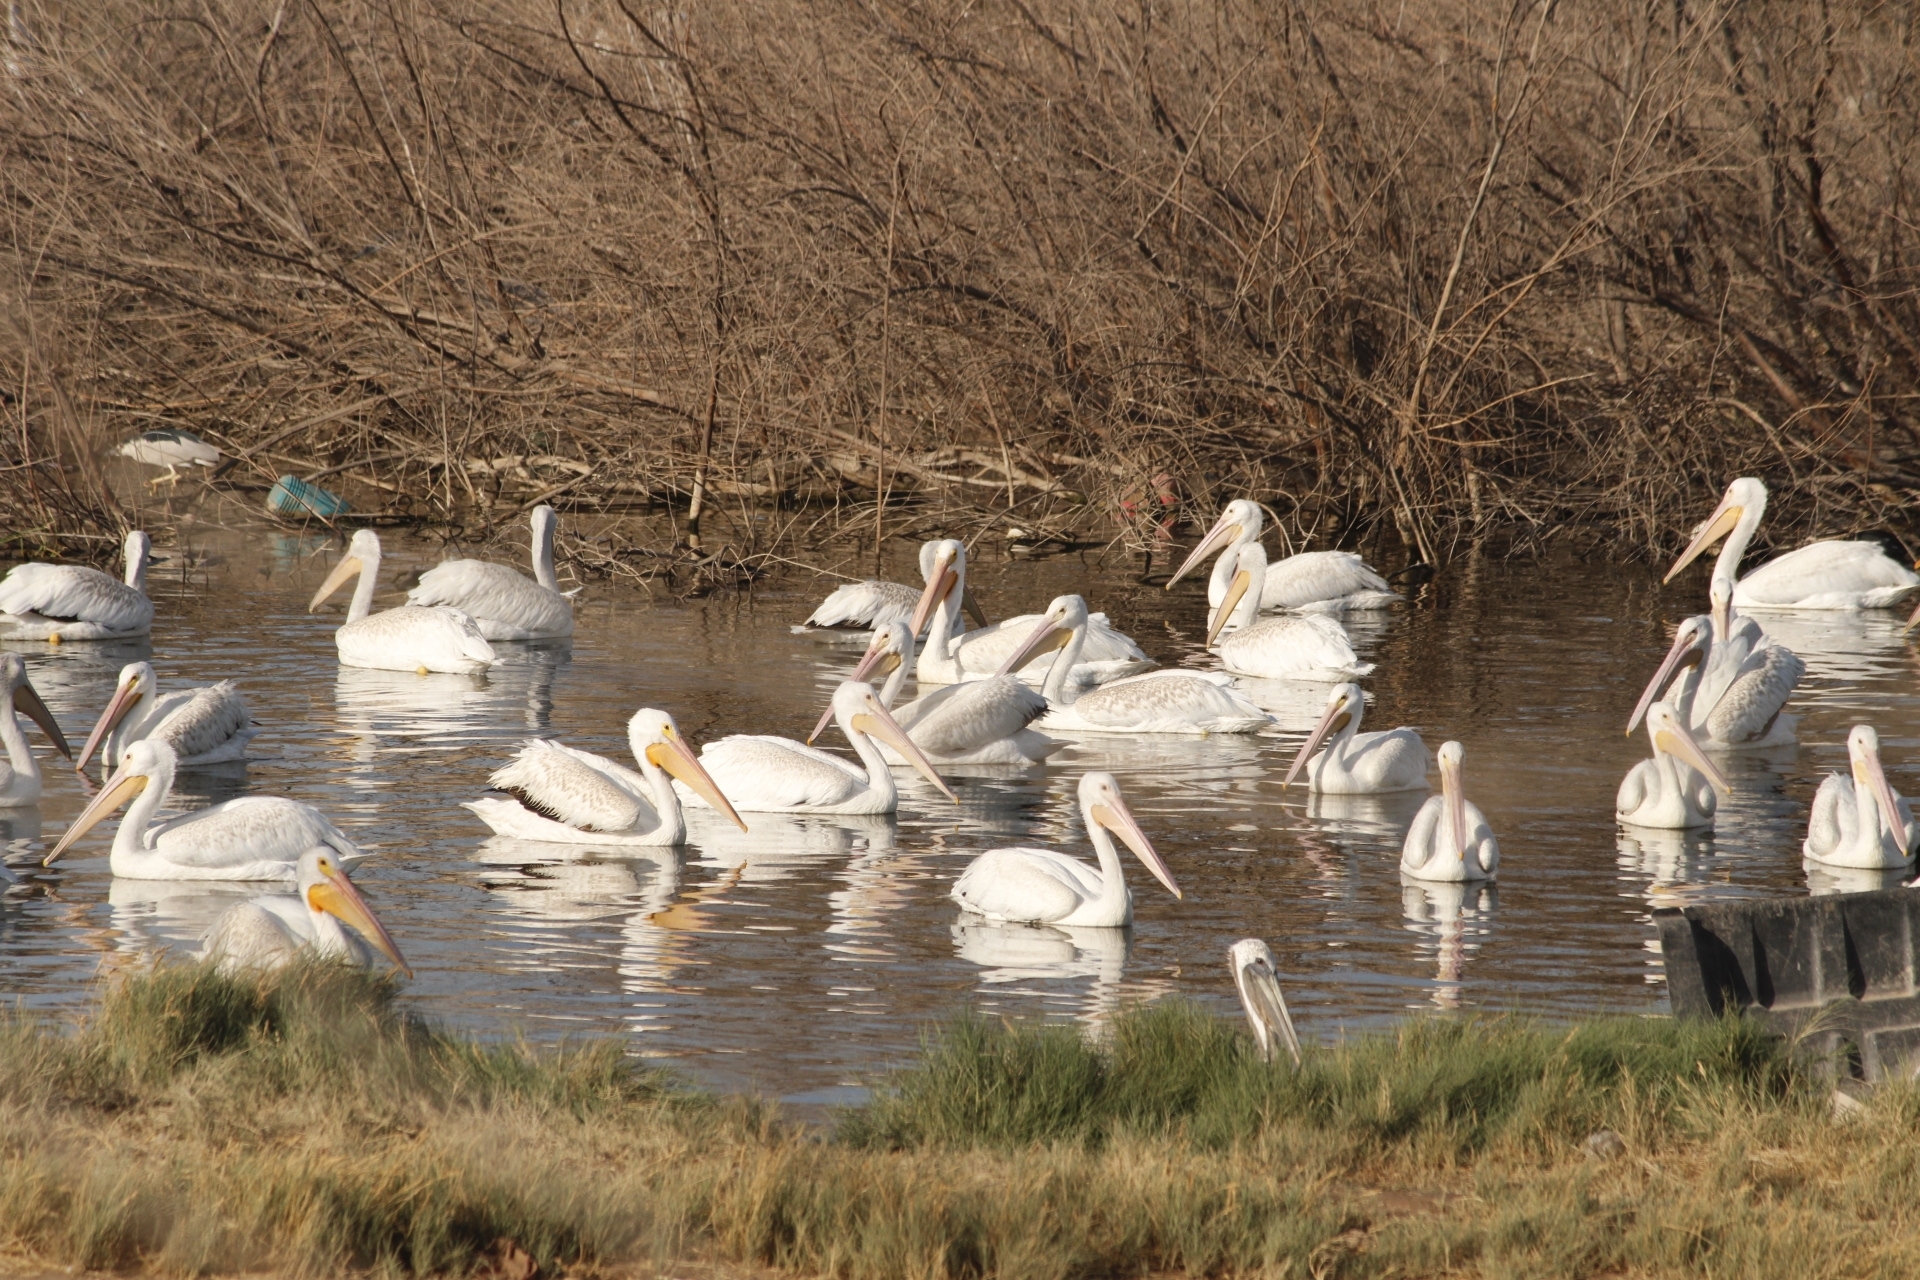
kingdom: Animalia
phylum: Chordata
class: Aves
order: Pelecaniformes
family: Pelecanidae
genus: Pelecanus
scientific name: Pelecanus erythrorhynchos
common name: American white pelican
